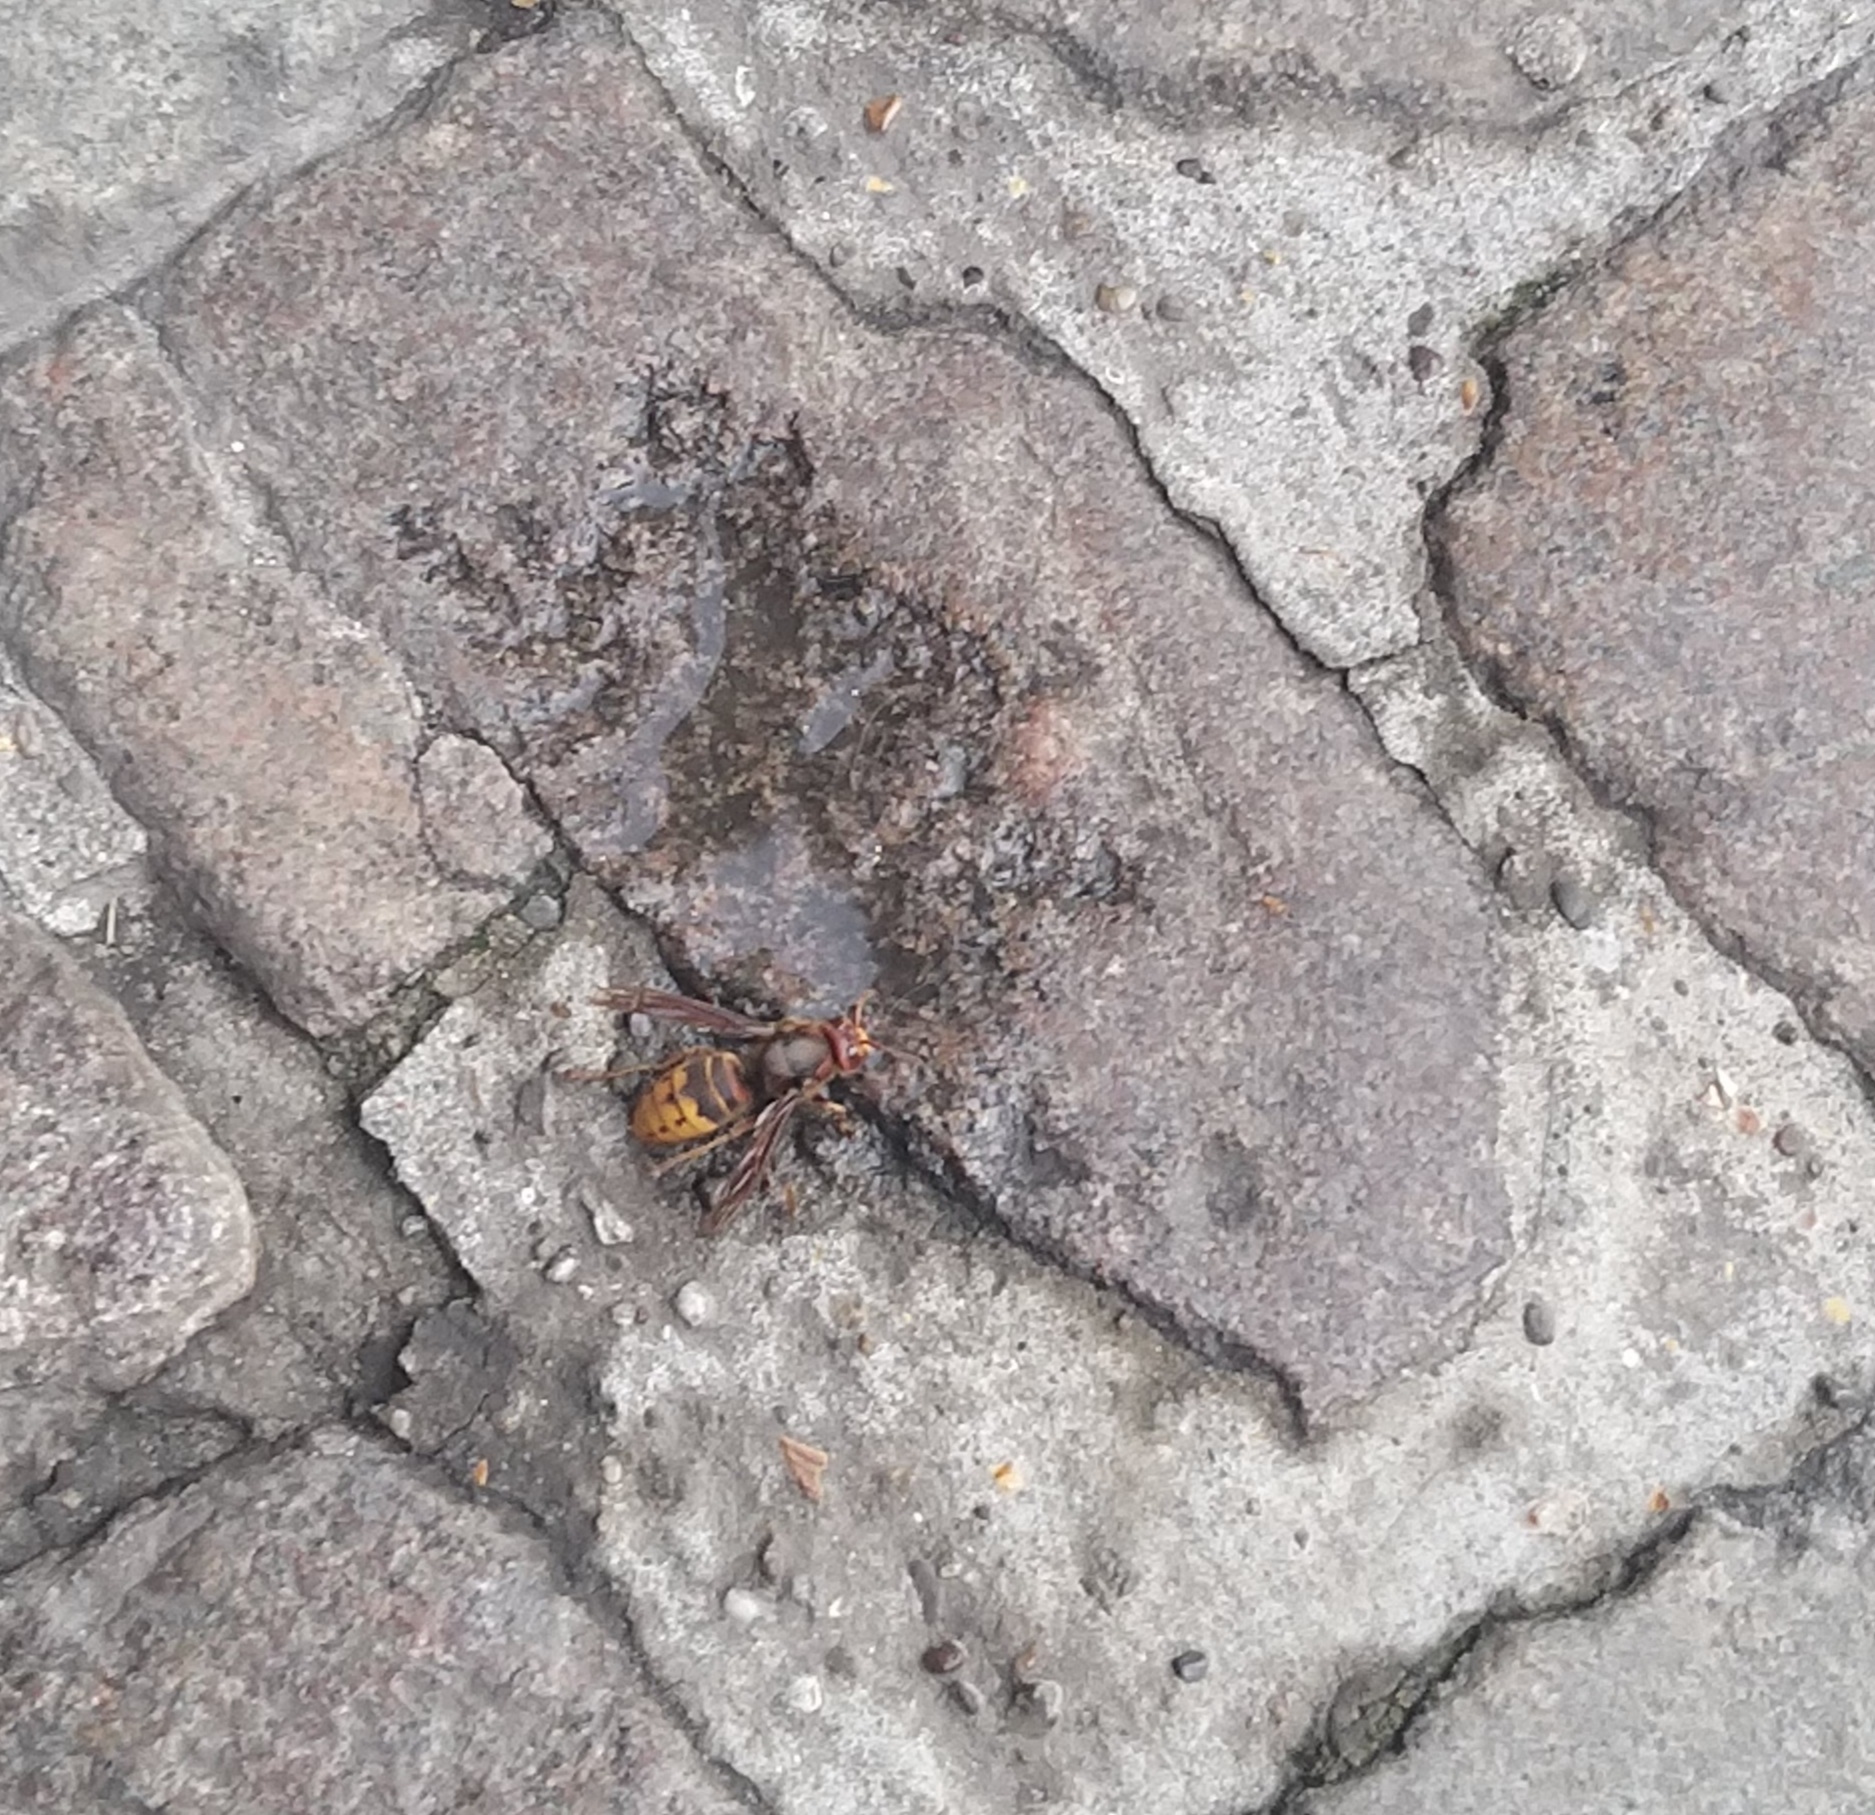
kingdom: Animalia
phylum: Arthropoda
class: Insecta
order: Hymenoptera
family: Vespidae
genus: Vespa
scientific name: Vespa crabro
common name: Hornet
